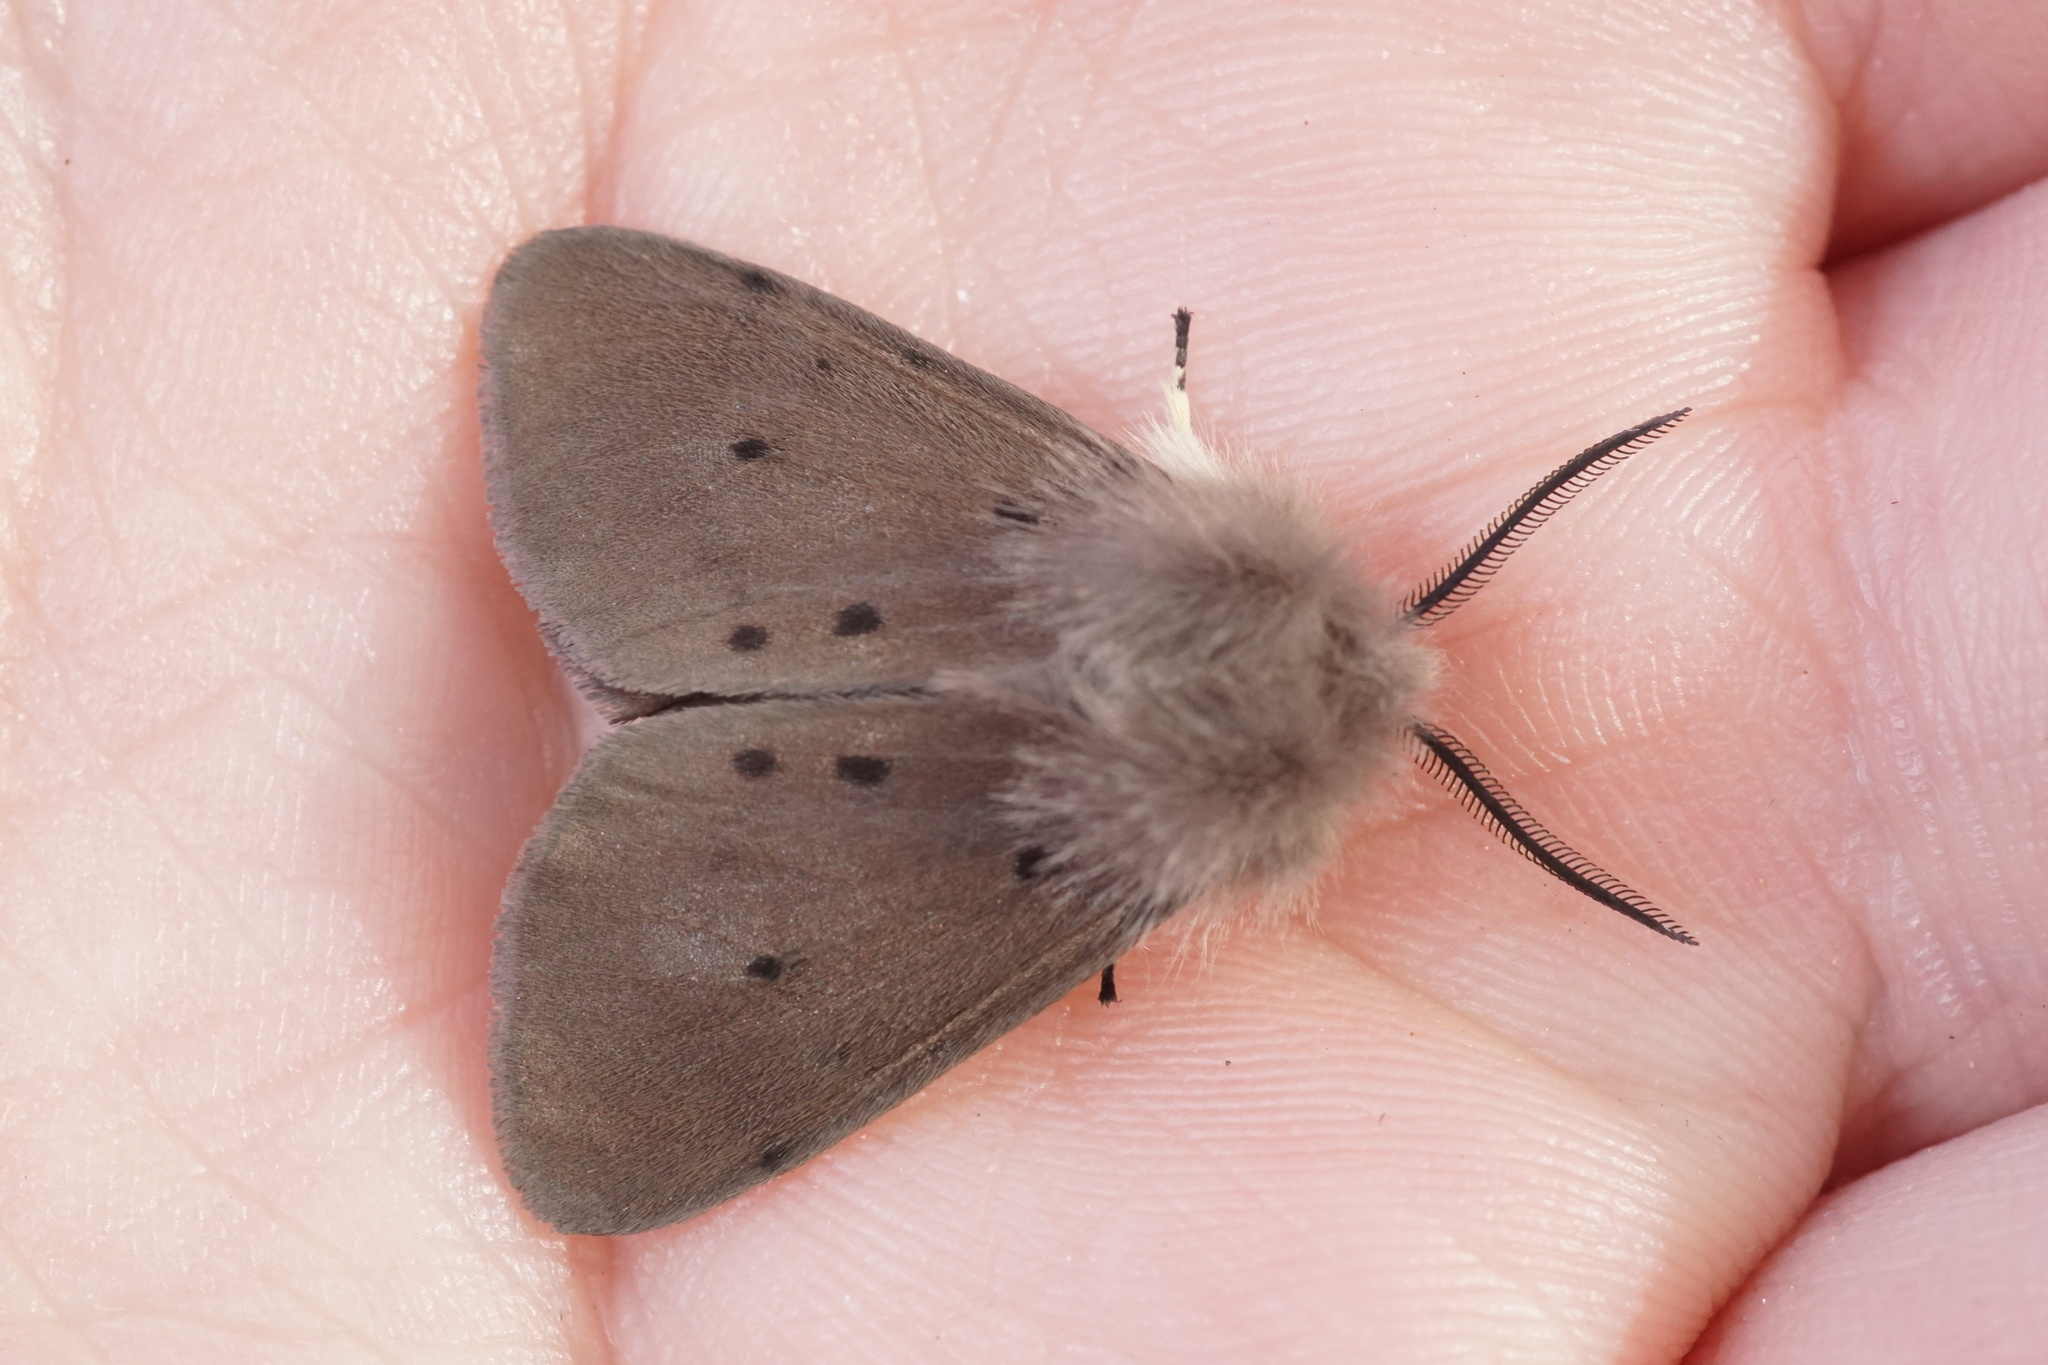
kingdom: Animalia
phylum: Arthropoda
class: Insecta
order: Lepidoptera
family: Erebidae
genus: Diaphora
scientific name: Diaphora mendica
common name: Muslin moth
